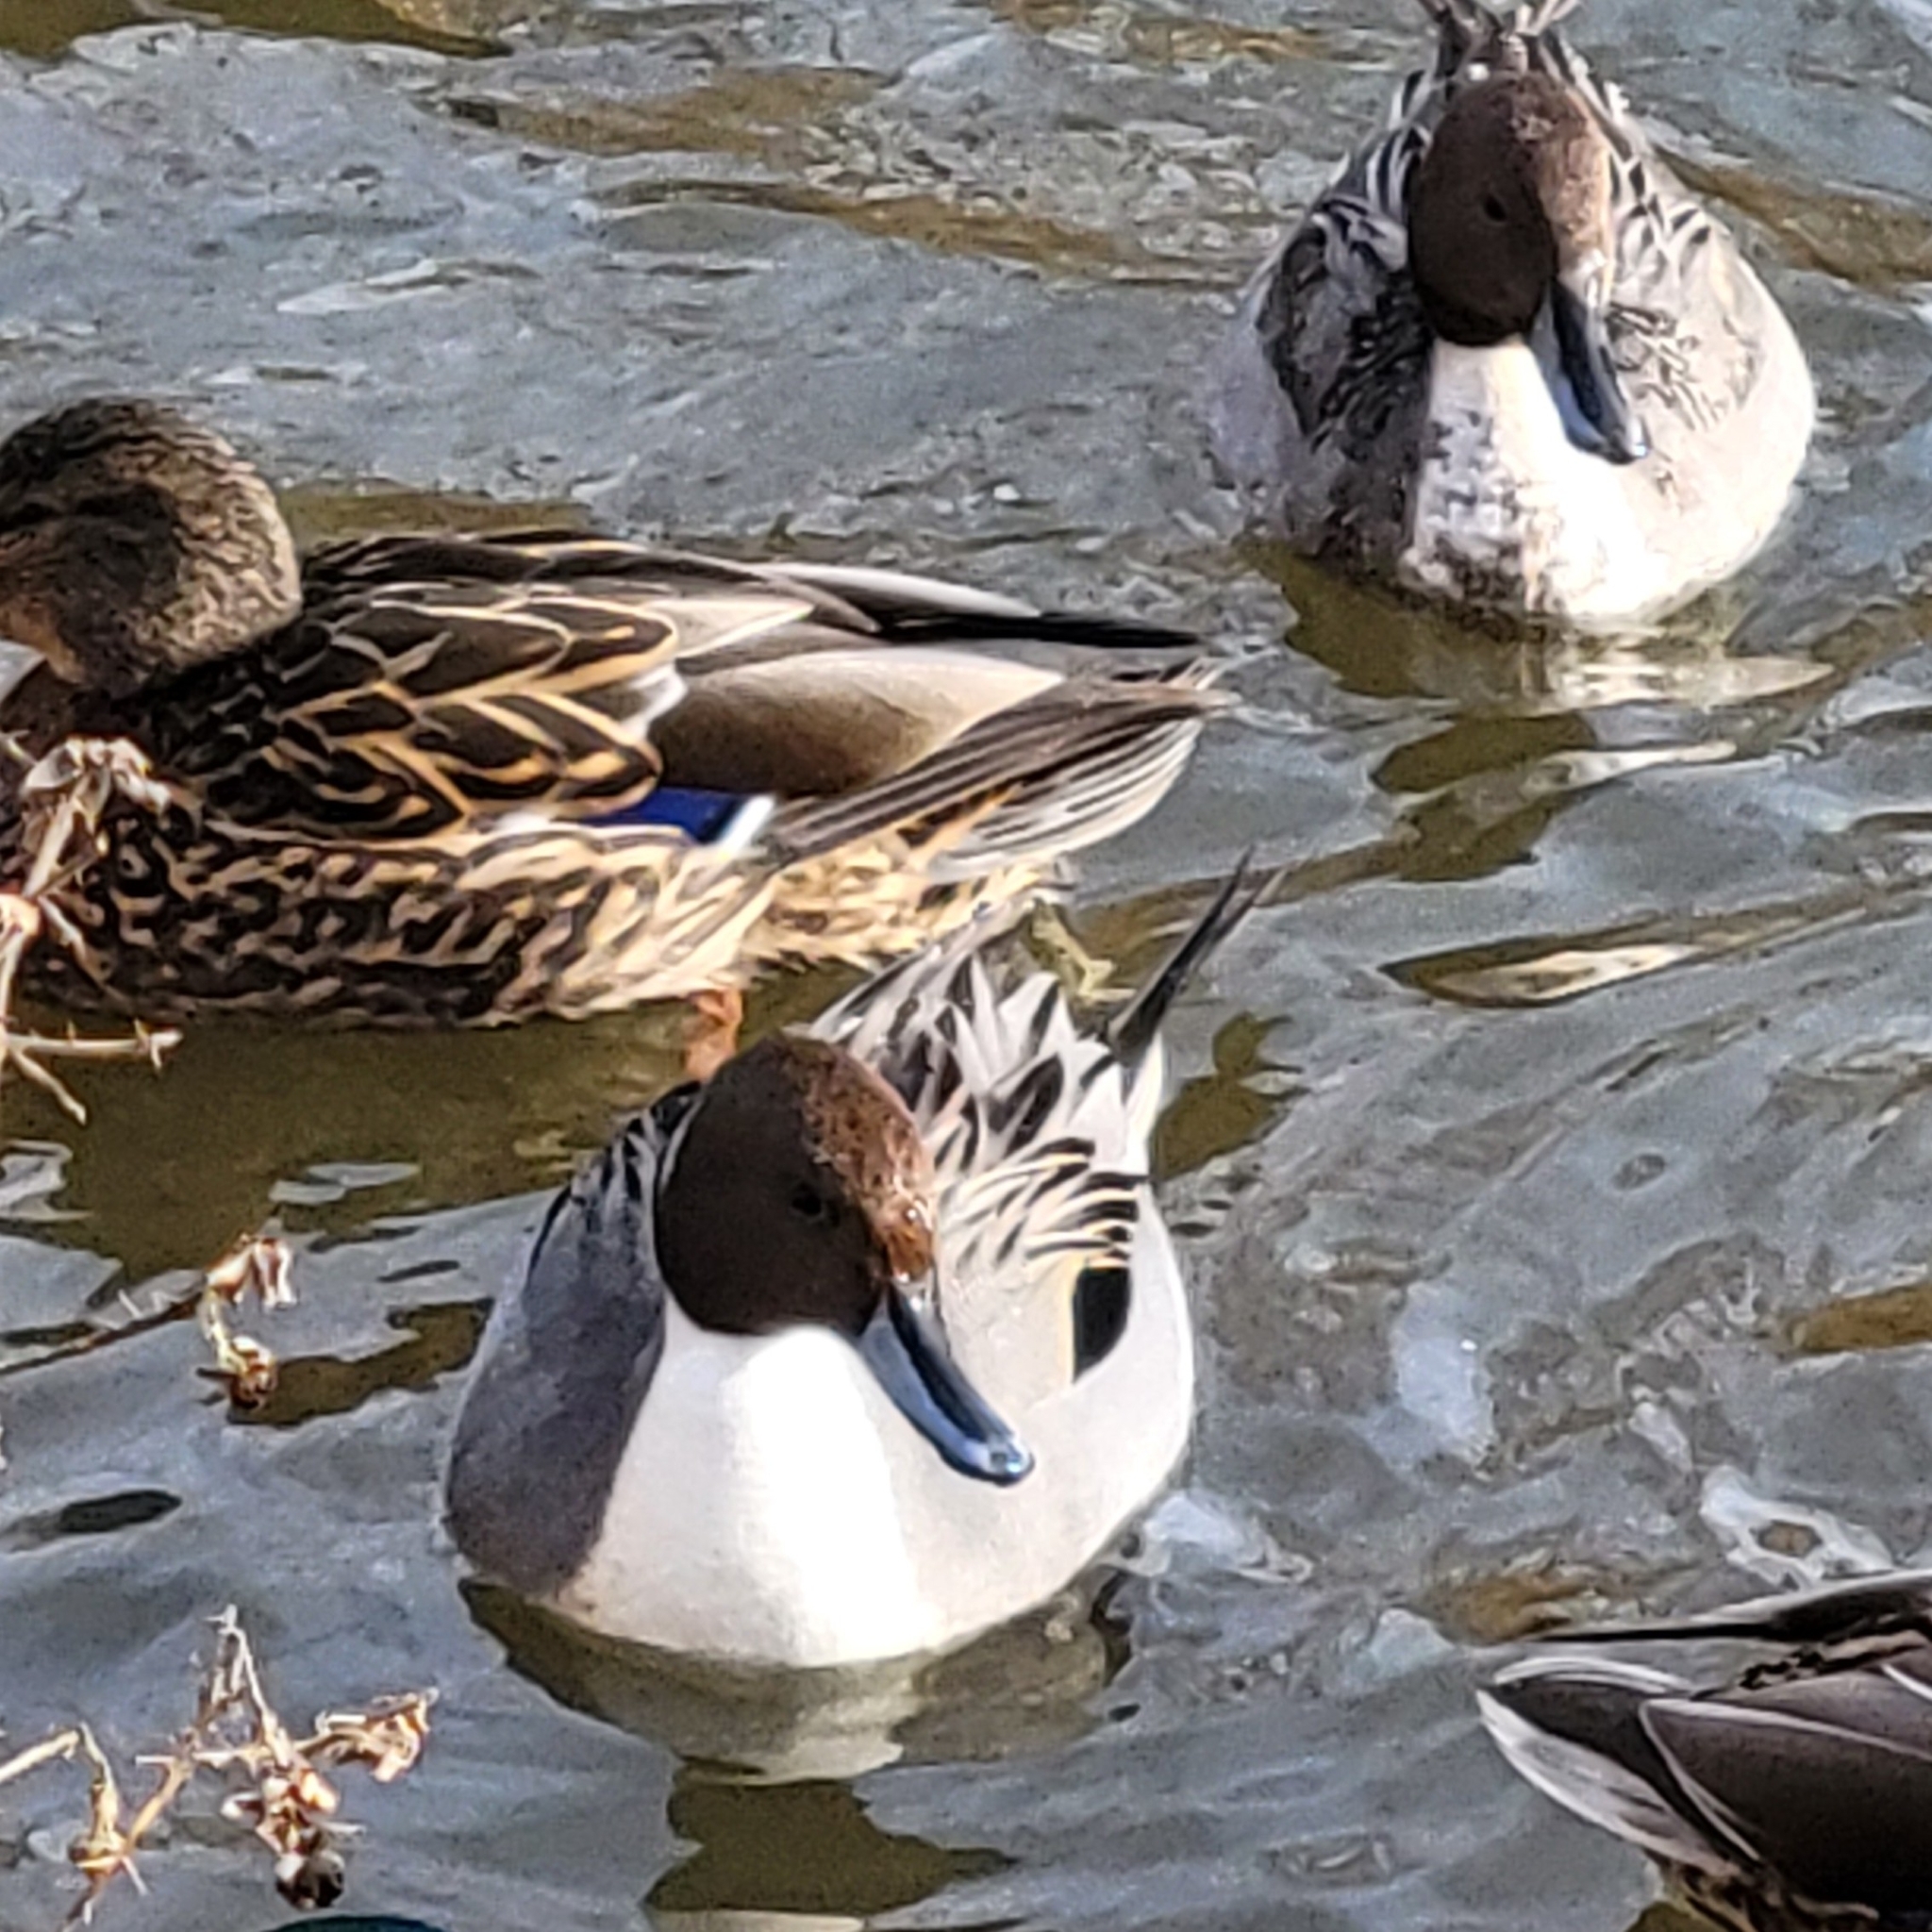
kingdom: Animalia
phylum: Chordata
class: Aves
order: Anseriformes
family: Anatidae
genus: Anas
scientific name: Anas acuta
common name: Northern pintail
